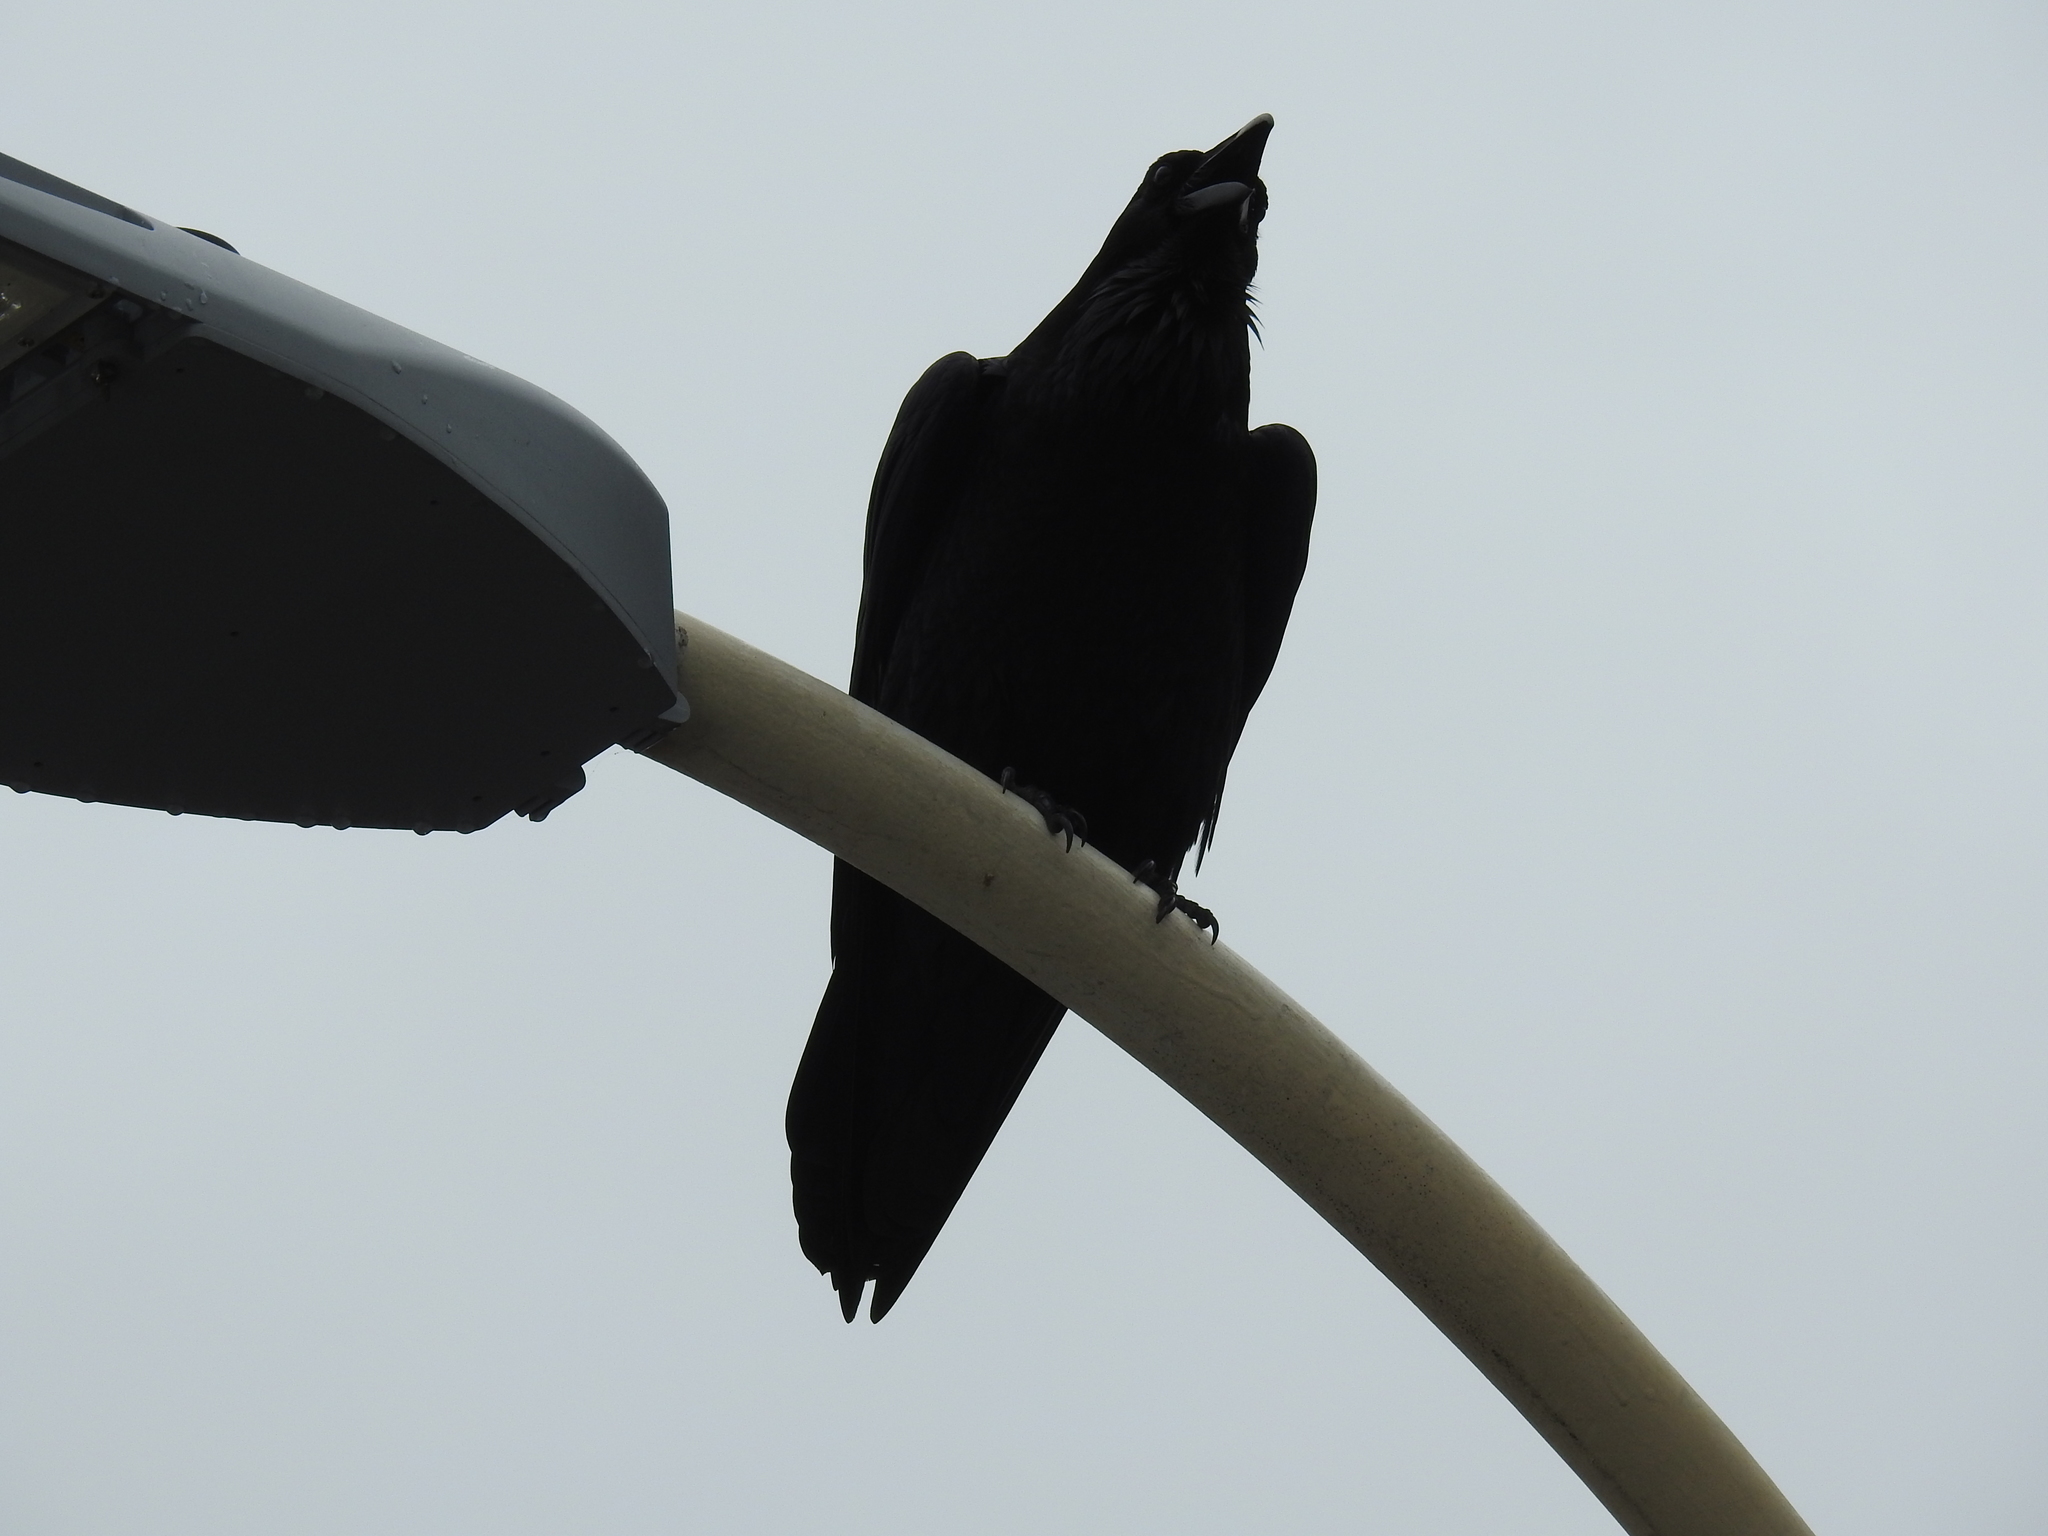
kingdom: Animalia
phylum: Chordata
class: Aves
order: Passeriformes
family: Corvidae
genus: Corvus
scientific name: Corvus corax
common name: Common raven
